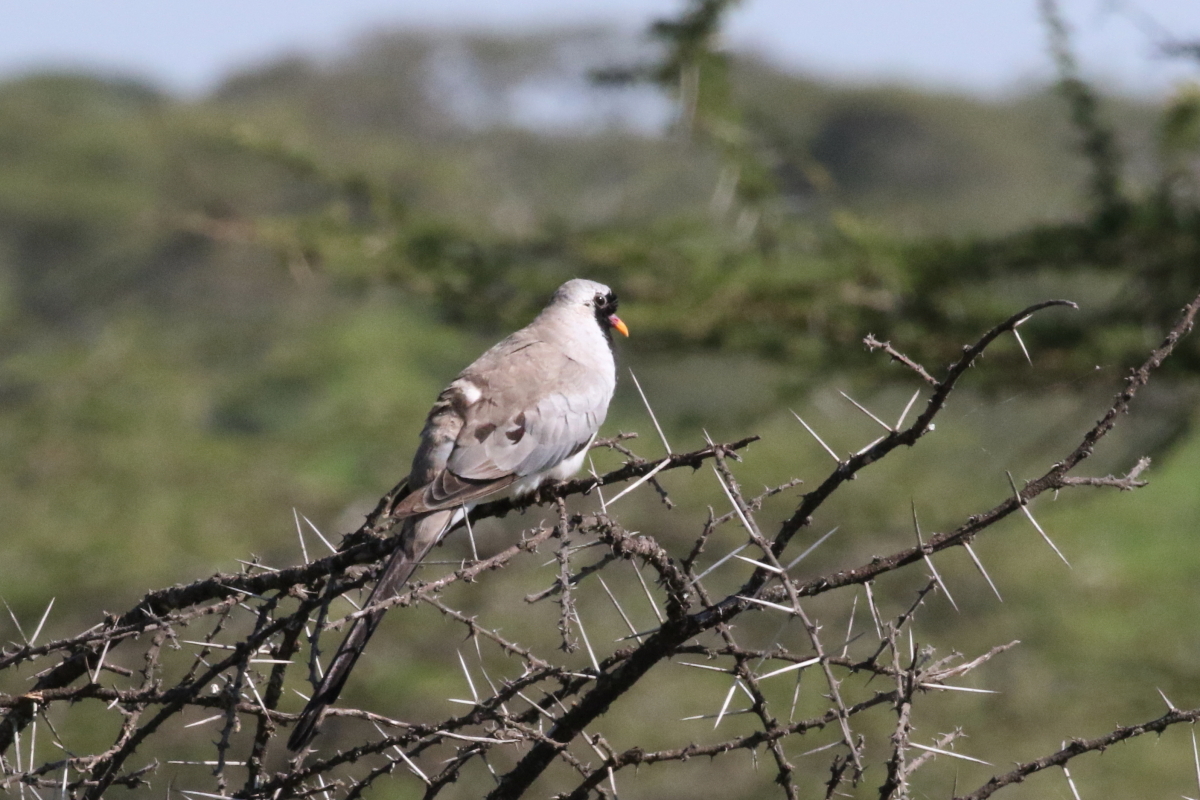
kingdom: Animalia
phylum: Chordata
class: Aves
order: Columbiformes
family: Columbidae
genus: Oena
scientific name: Oena capensis
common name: Namaqua dove
